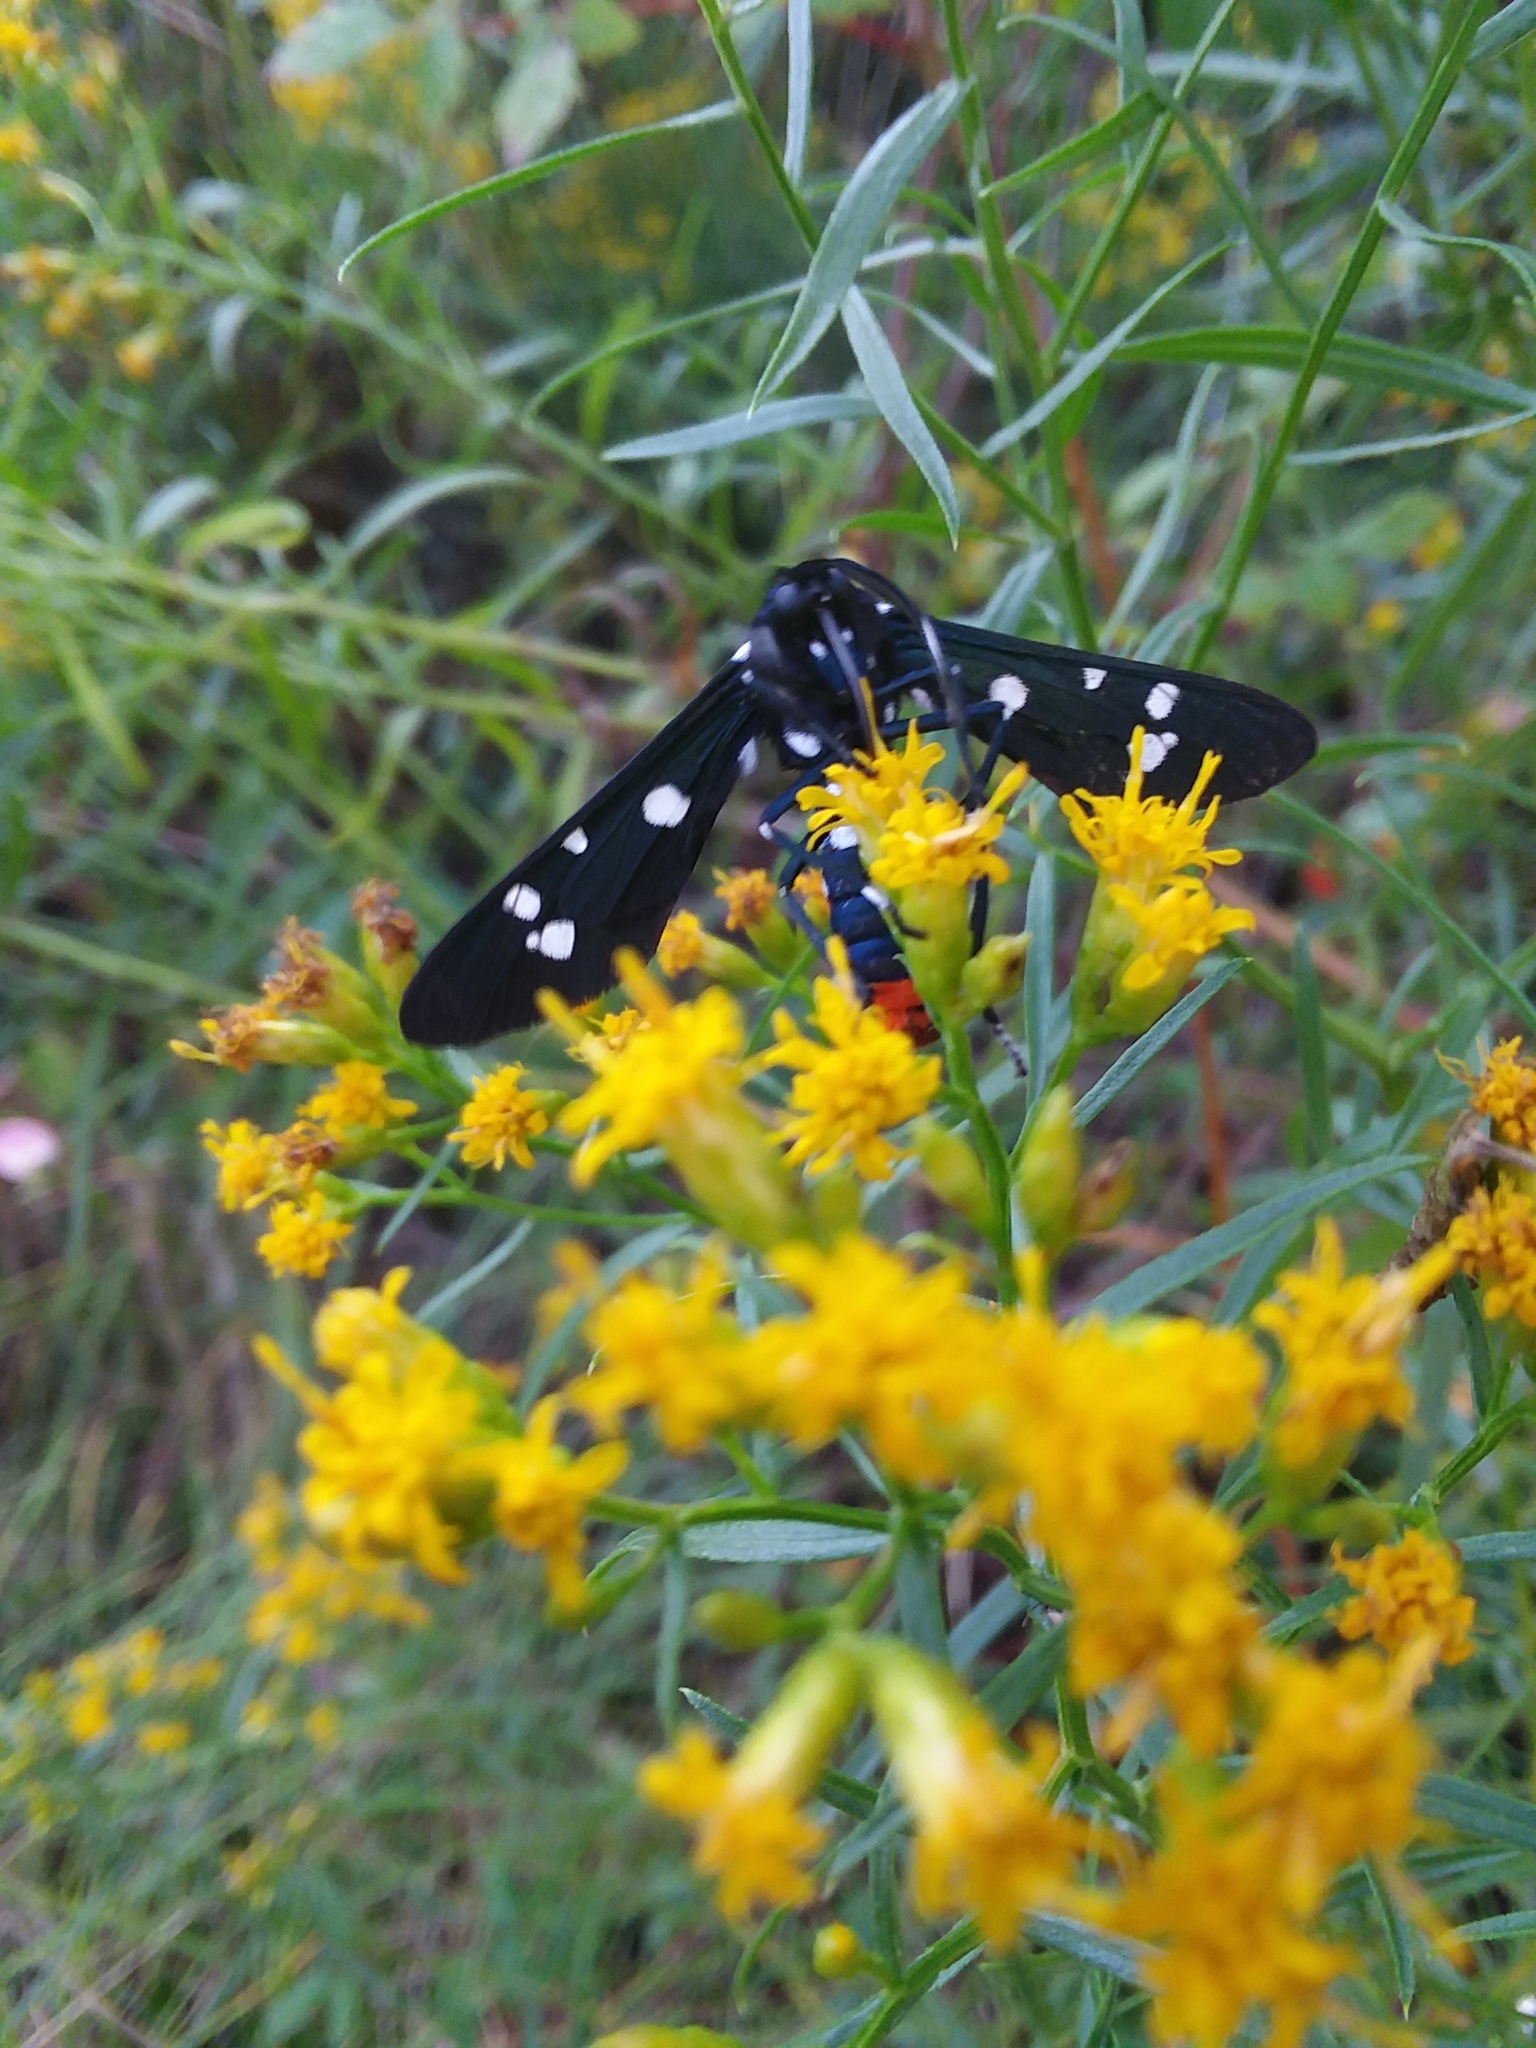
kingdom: Animalia
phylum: Arthropoda
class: Insecta
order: Lepidoptera
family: Erebidae
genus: Syntomeida
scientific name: Syntomeida epilais
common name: Polka-dot wasp moth
